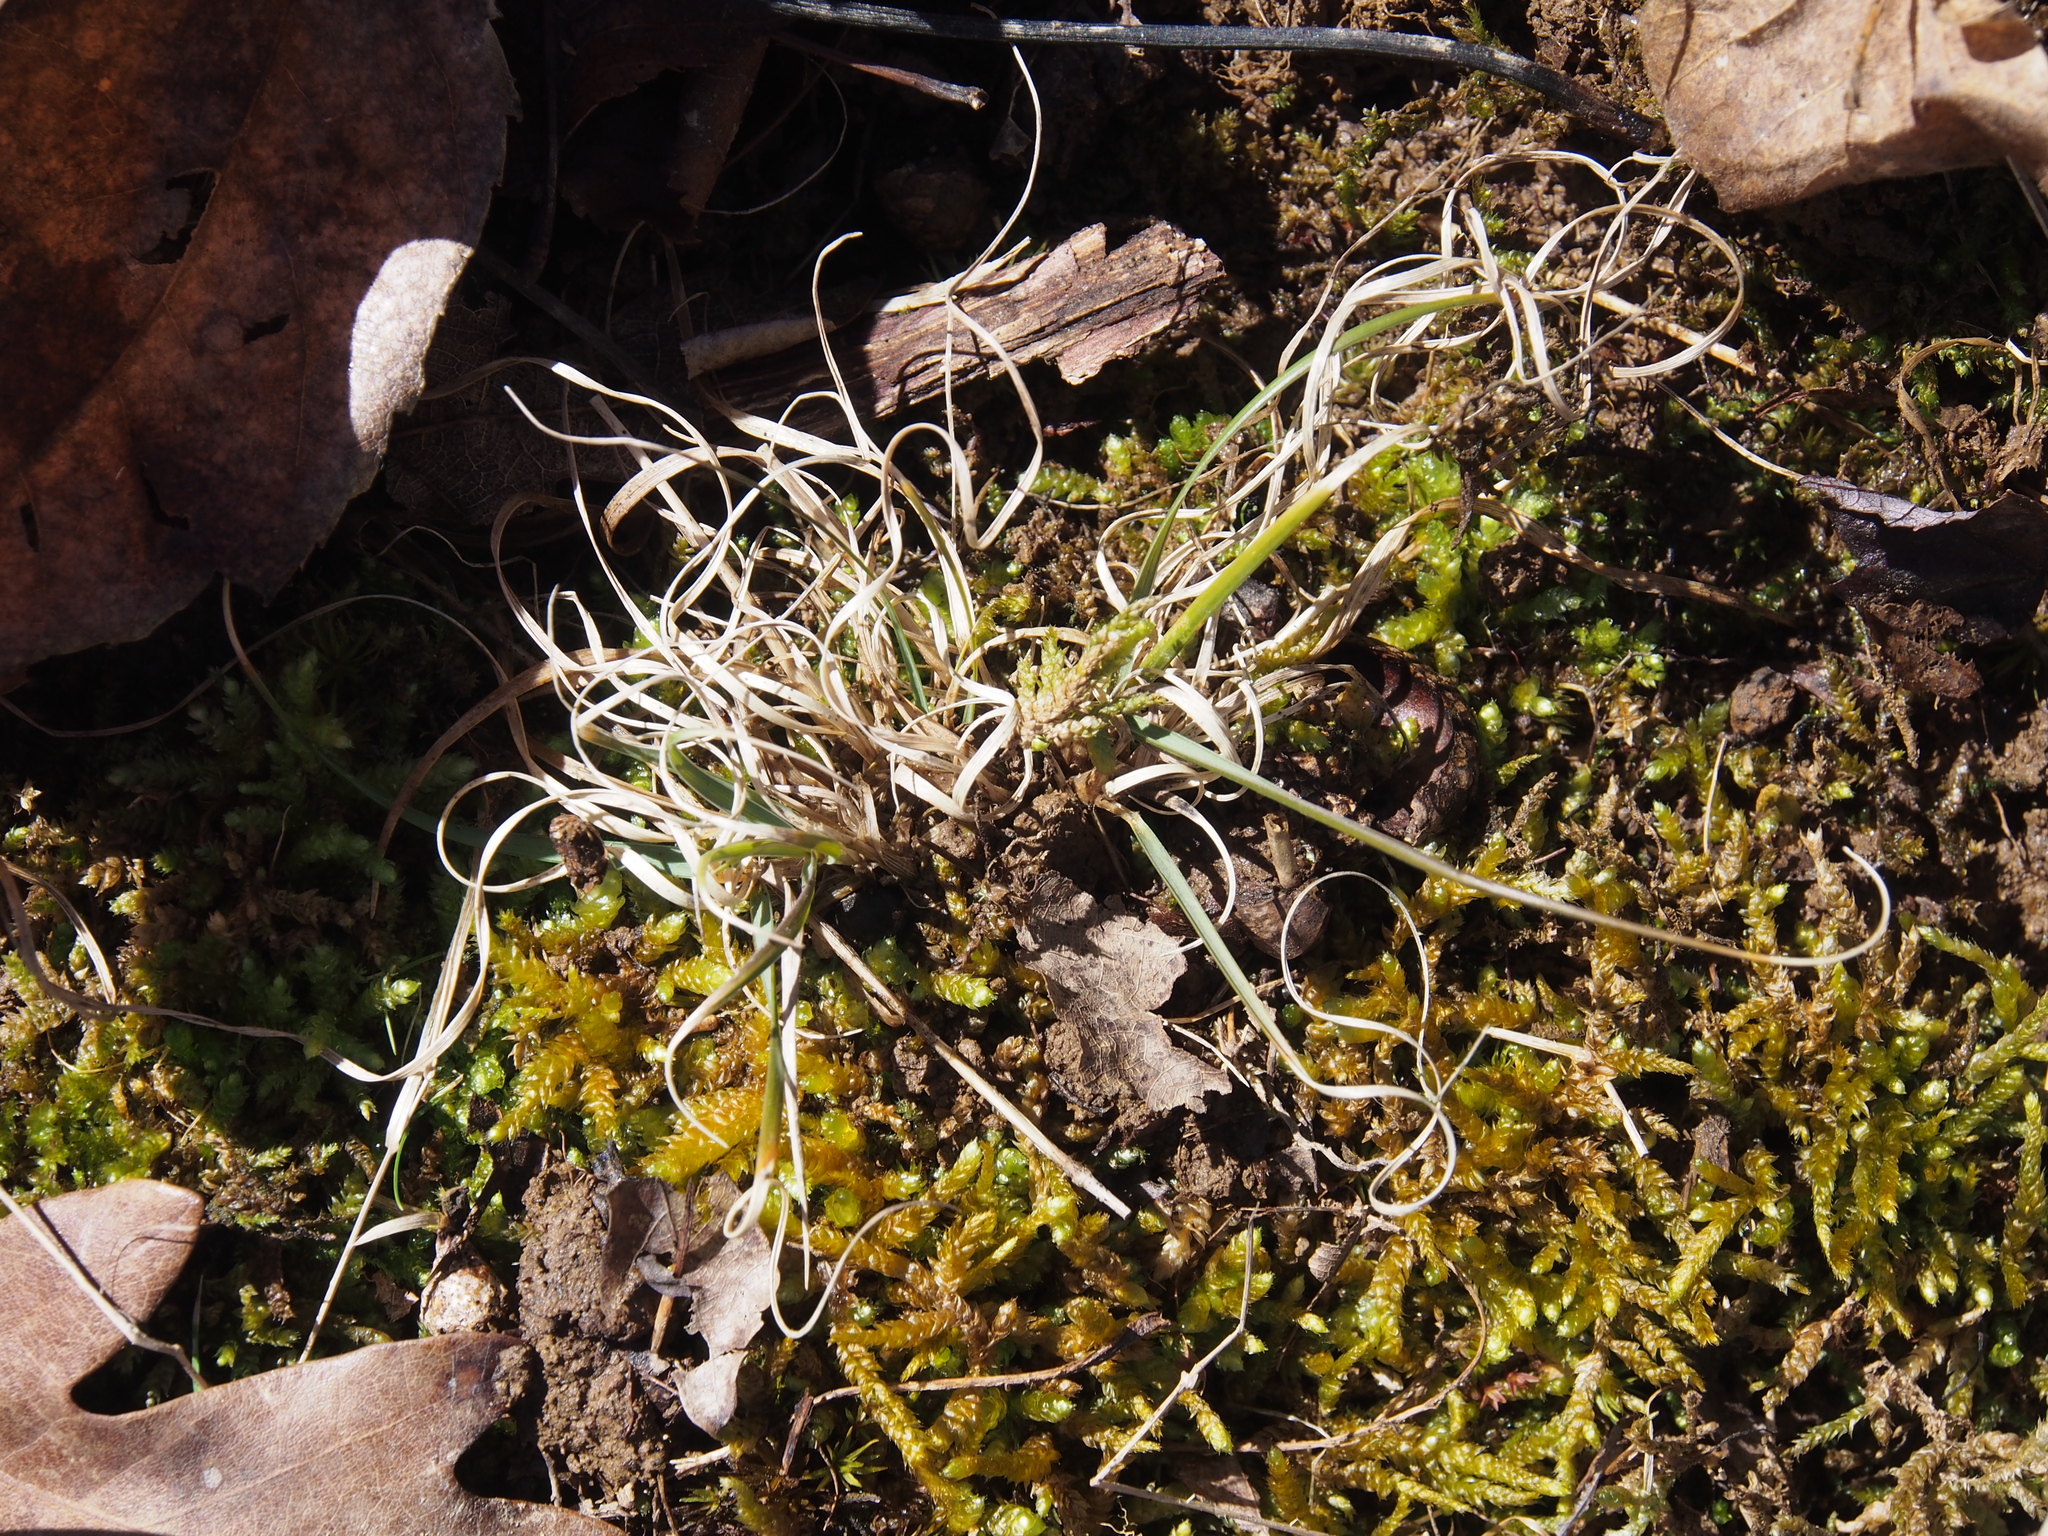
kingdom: Plantae
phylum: Tracheophyta
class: Liliopsida
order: Poales
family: Poaceae
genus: Danthonia
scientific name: Danthonia spicata
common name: Common wild oatgrass
